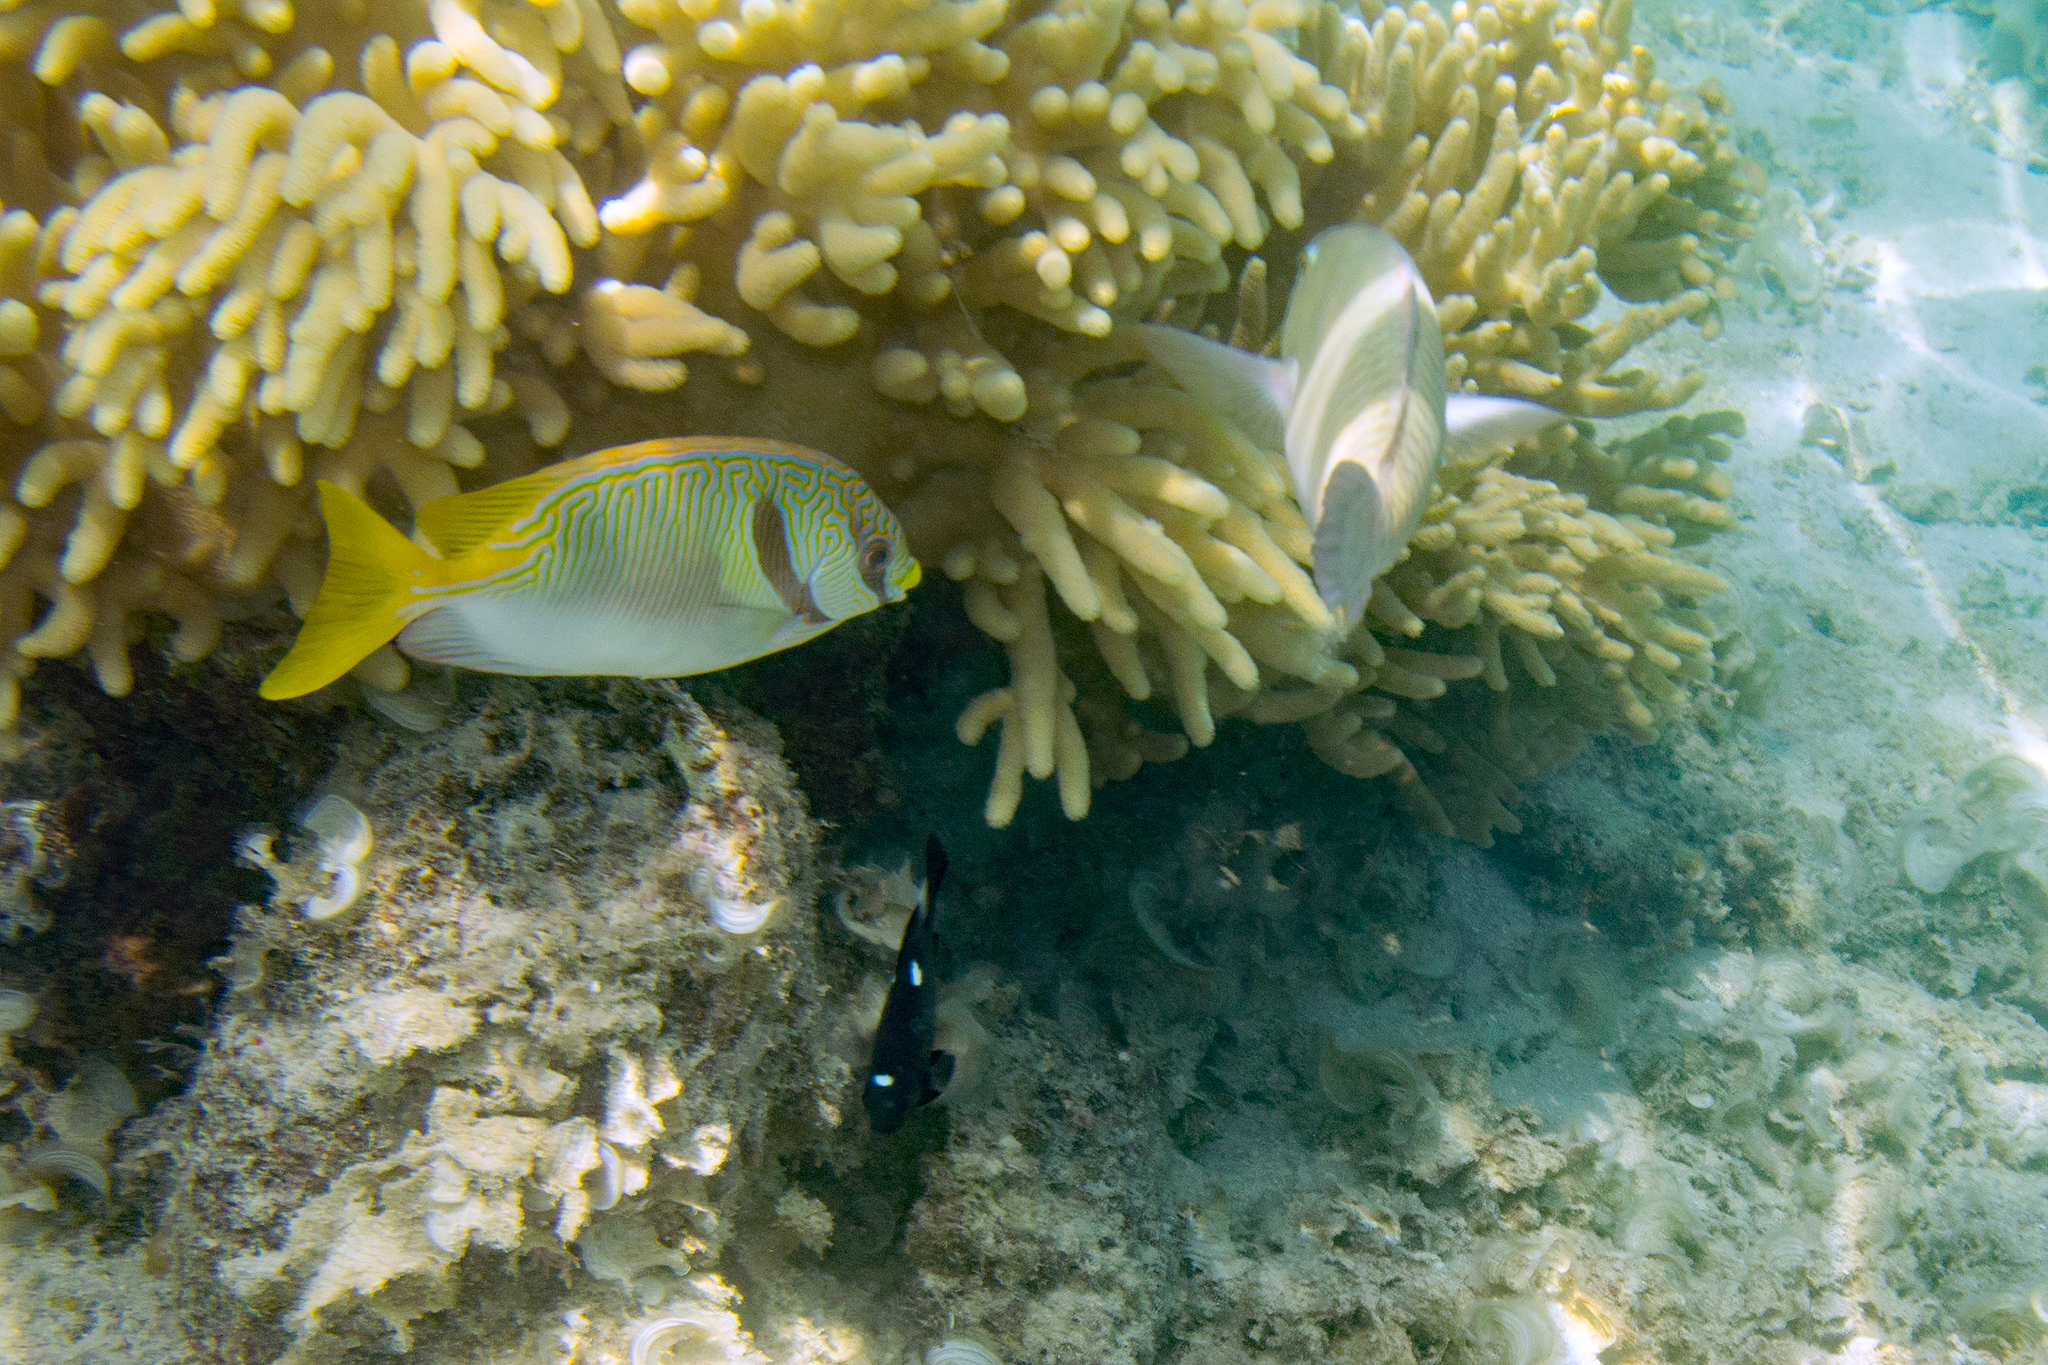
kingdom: Animalia
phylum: Chordata
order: Perciformes
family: Pomacentridae
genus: Dascyllus
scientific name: Dascyllus trimaculatus
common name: Threespot dascyllus
